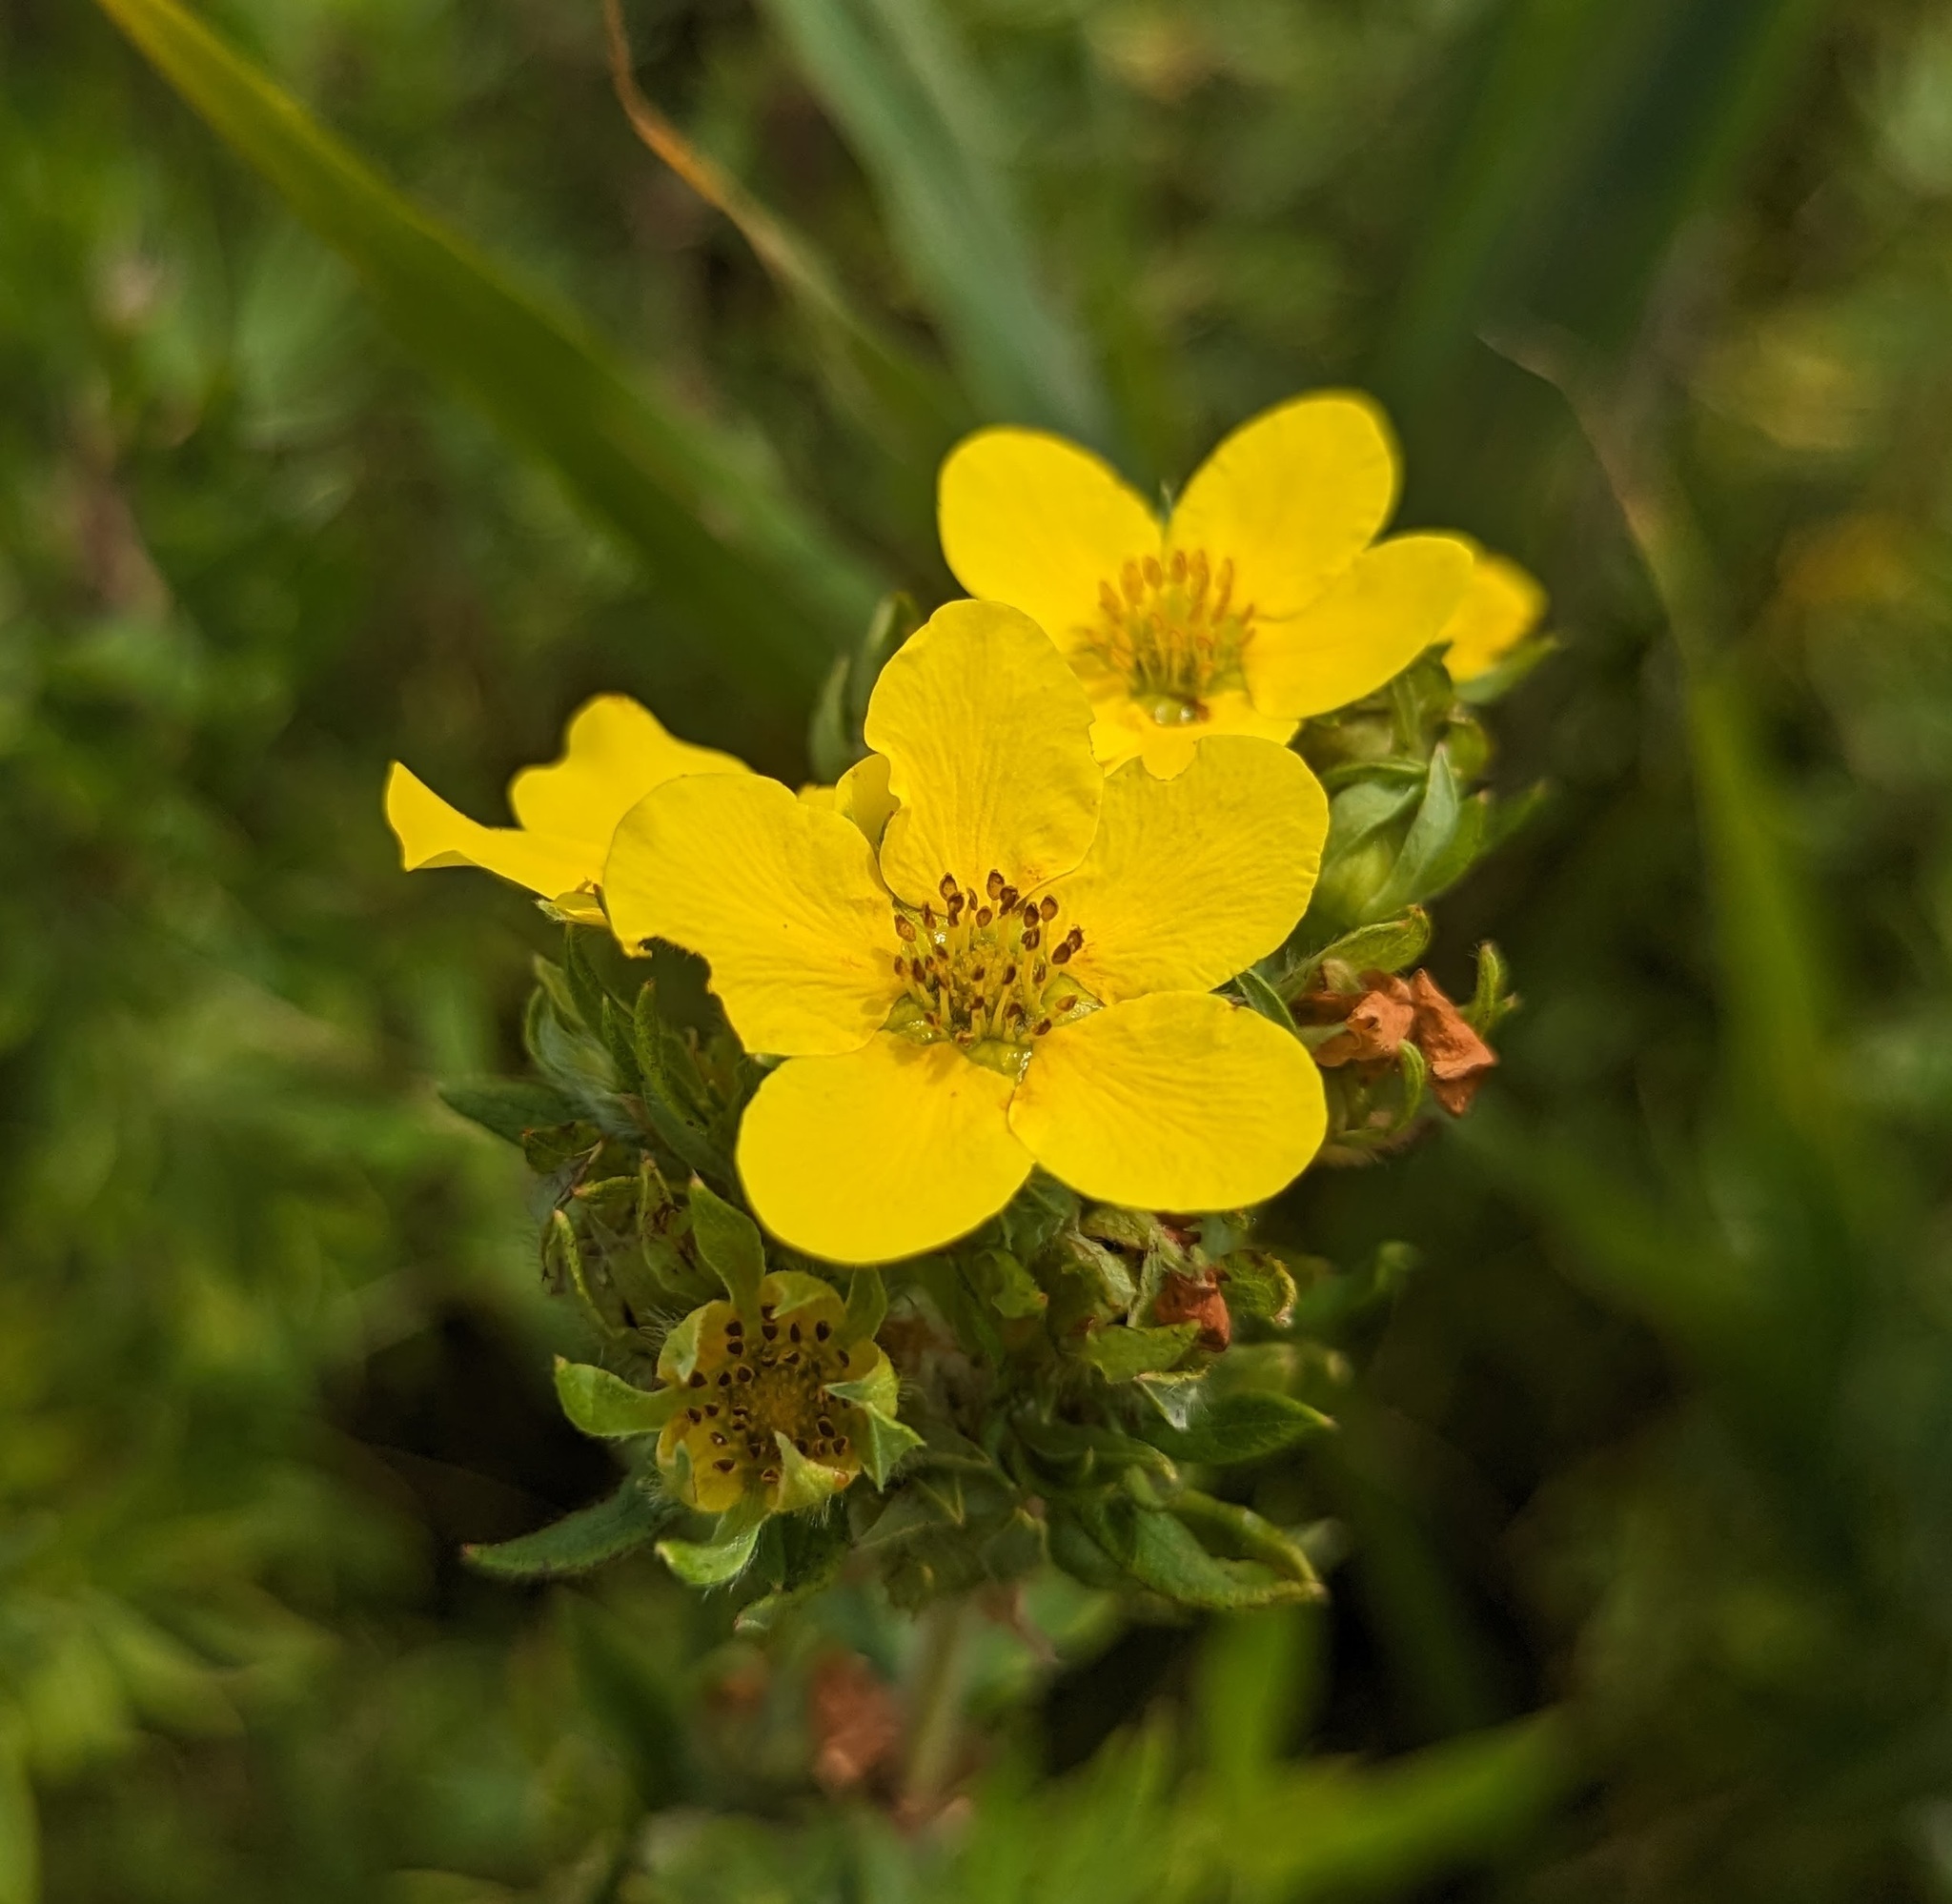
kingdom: Plantae
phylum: Tracheophyta
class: Magnoliopsida
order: Rosales
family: Rosaceae
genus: Dasiphora
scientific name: Dasiphora fruticosa
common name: Shrubby cinquefoil
